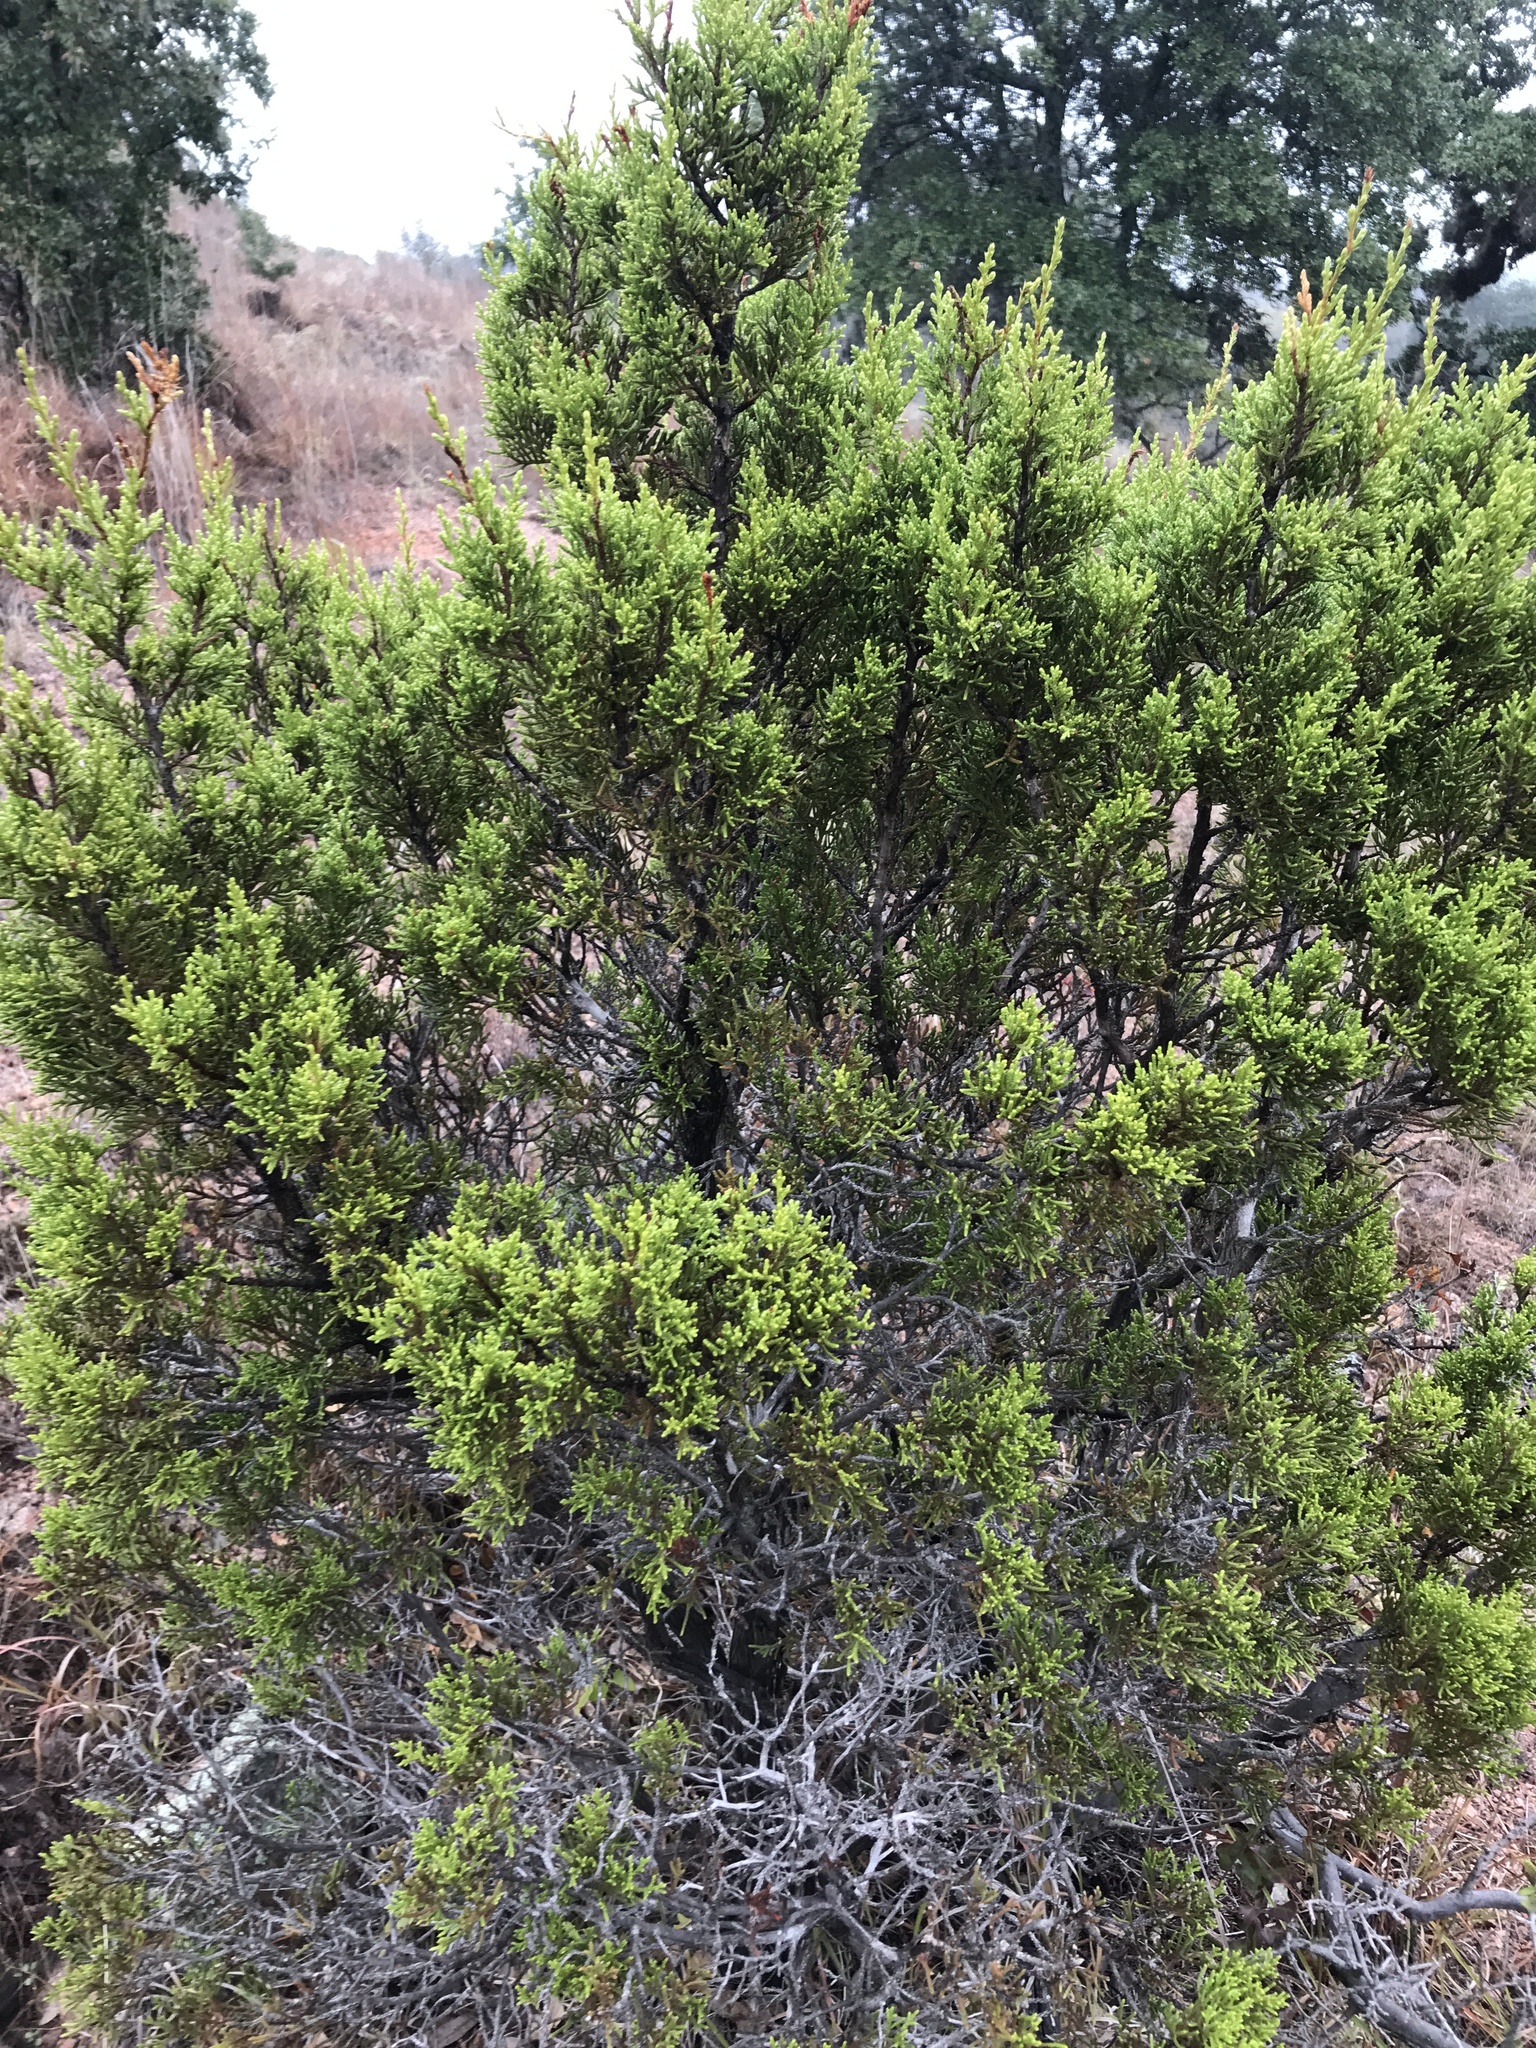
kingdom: Plantae
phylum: Tracheophyta
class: Pinopsida
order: Pinales
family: Cupressaceae
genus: Juniperus
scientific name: Juniperus ashei
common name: Mexican juniper
